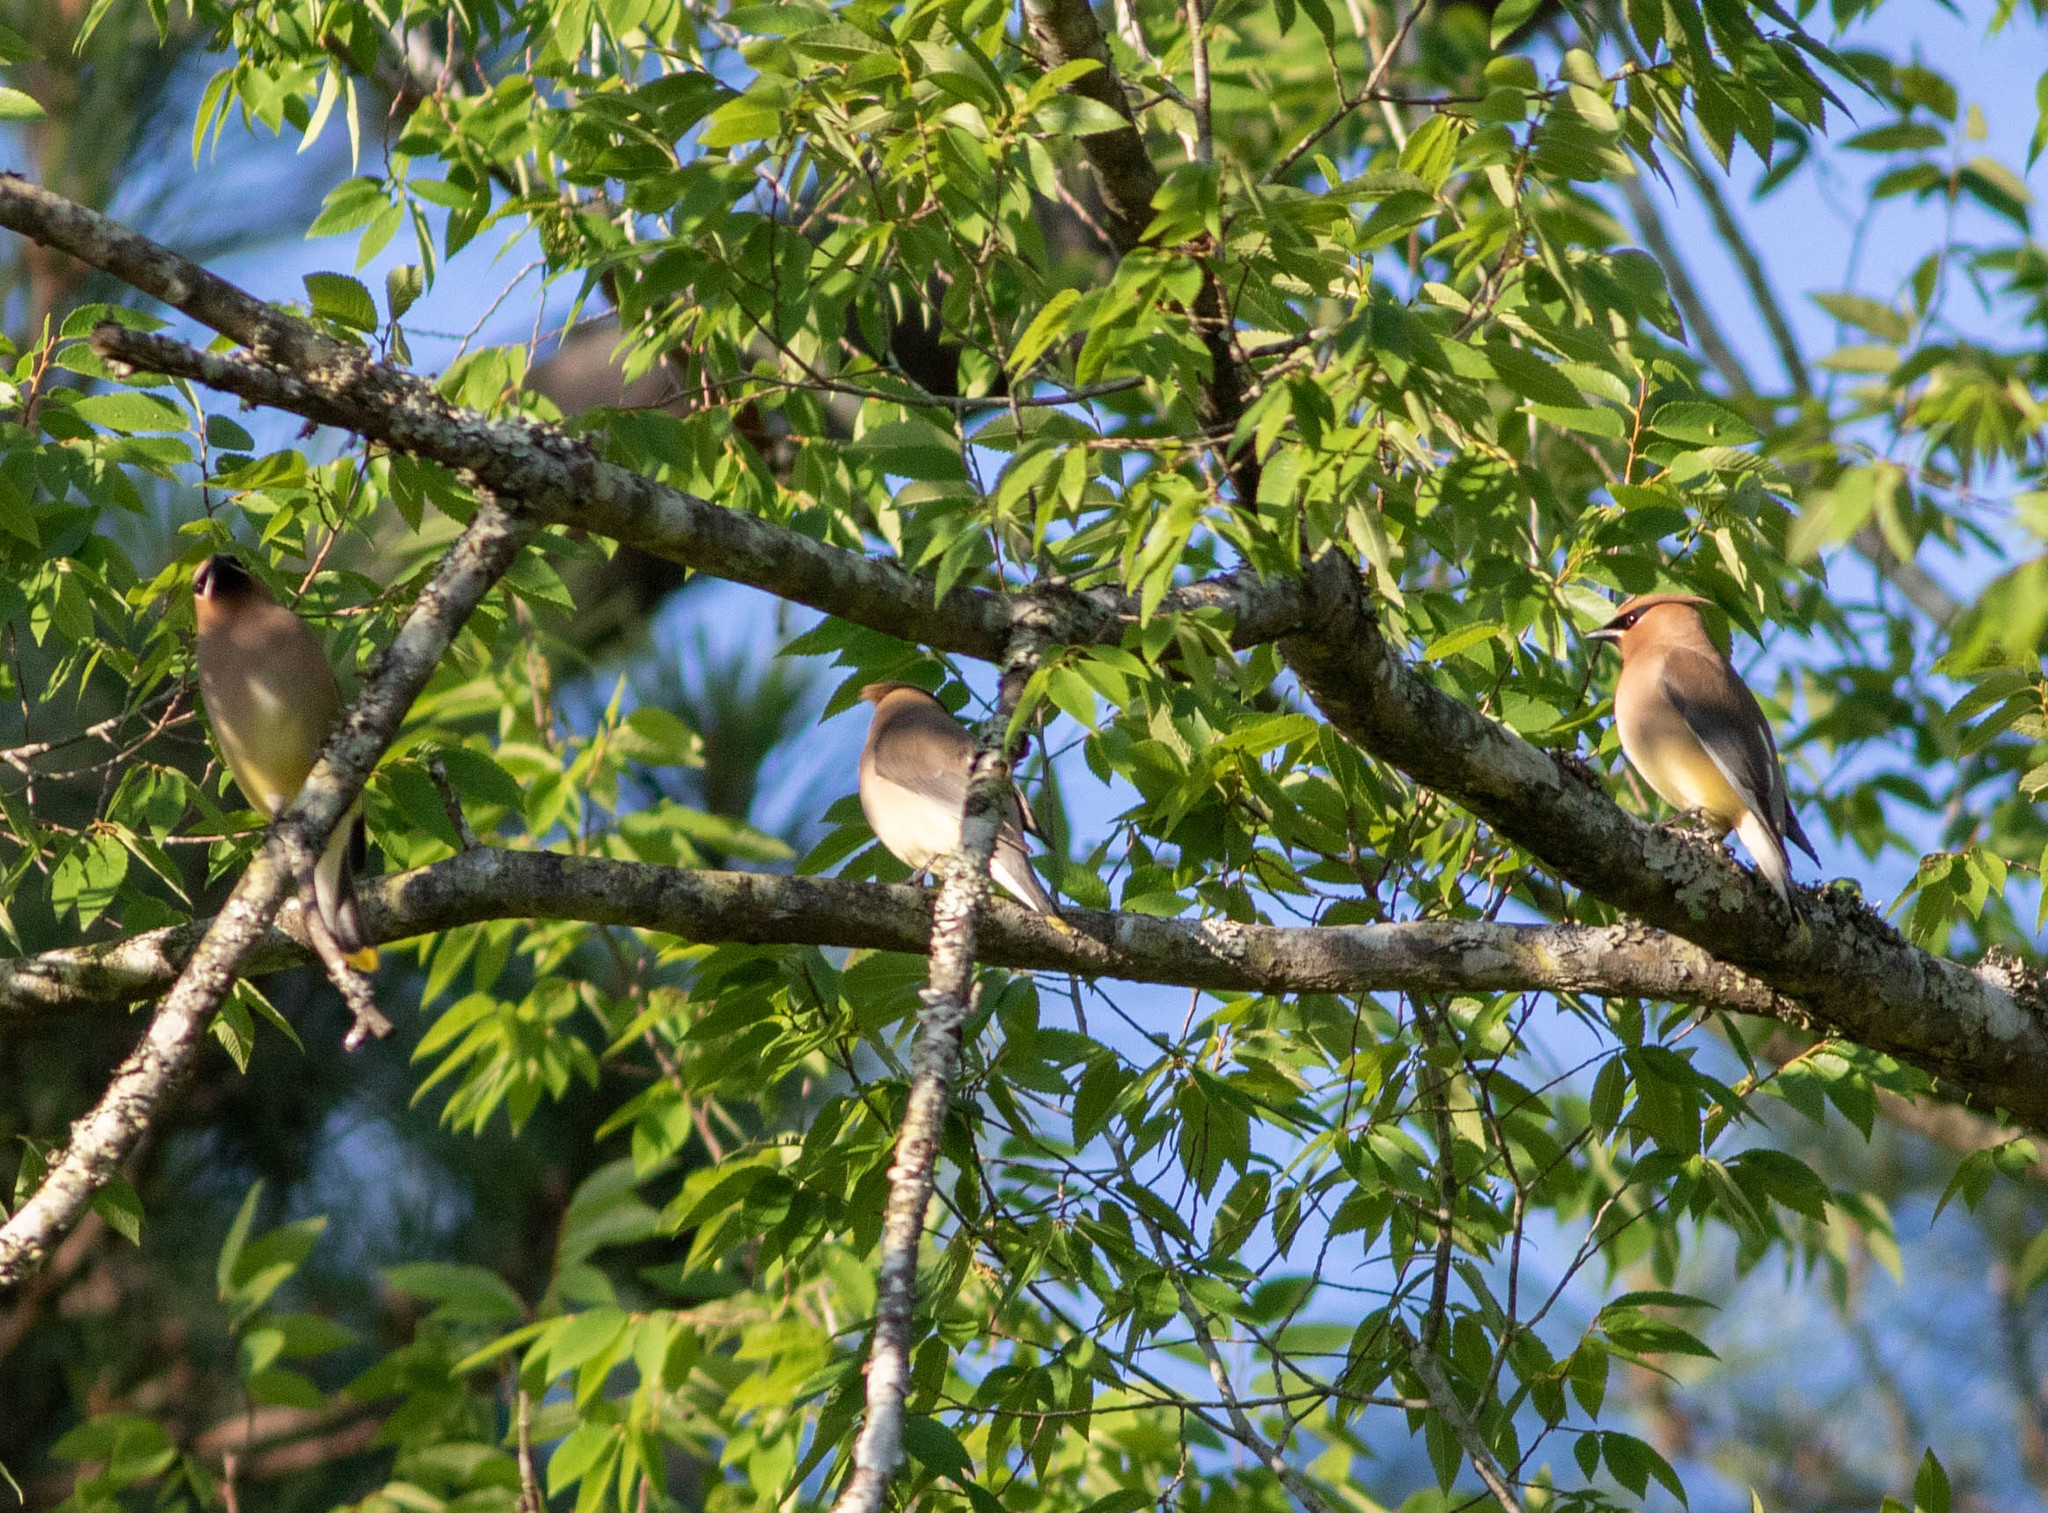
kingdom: Animalia
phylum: Chordata
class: Aves
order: Passeriformes
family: Bombycillidae
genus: Bombycilla
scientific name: Bombycilla cedrorum
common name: Cedar waxwing
